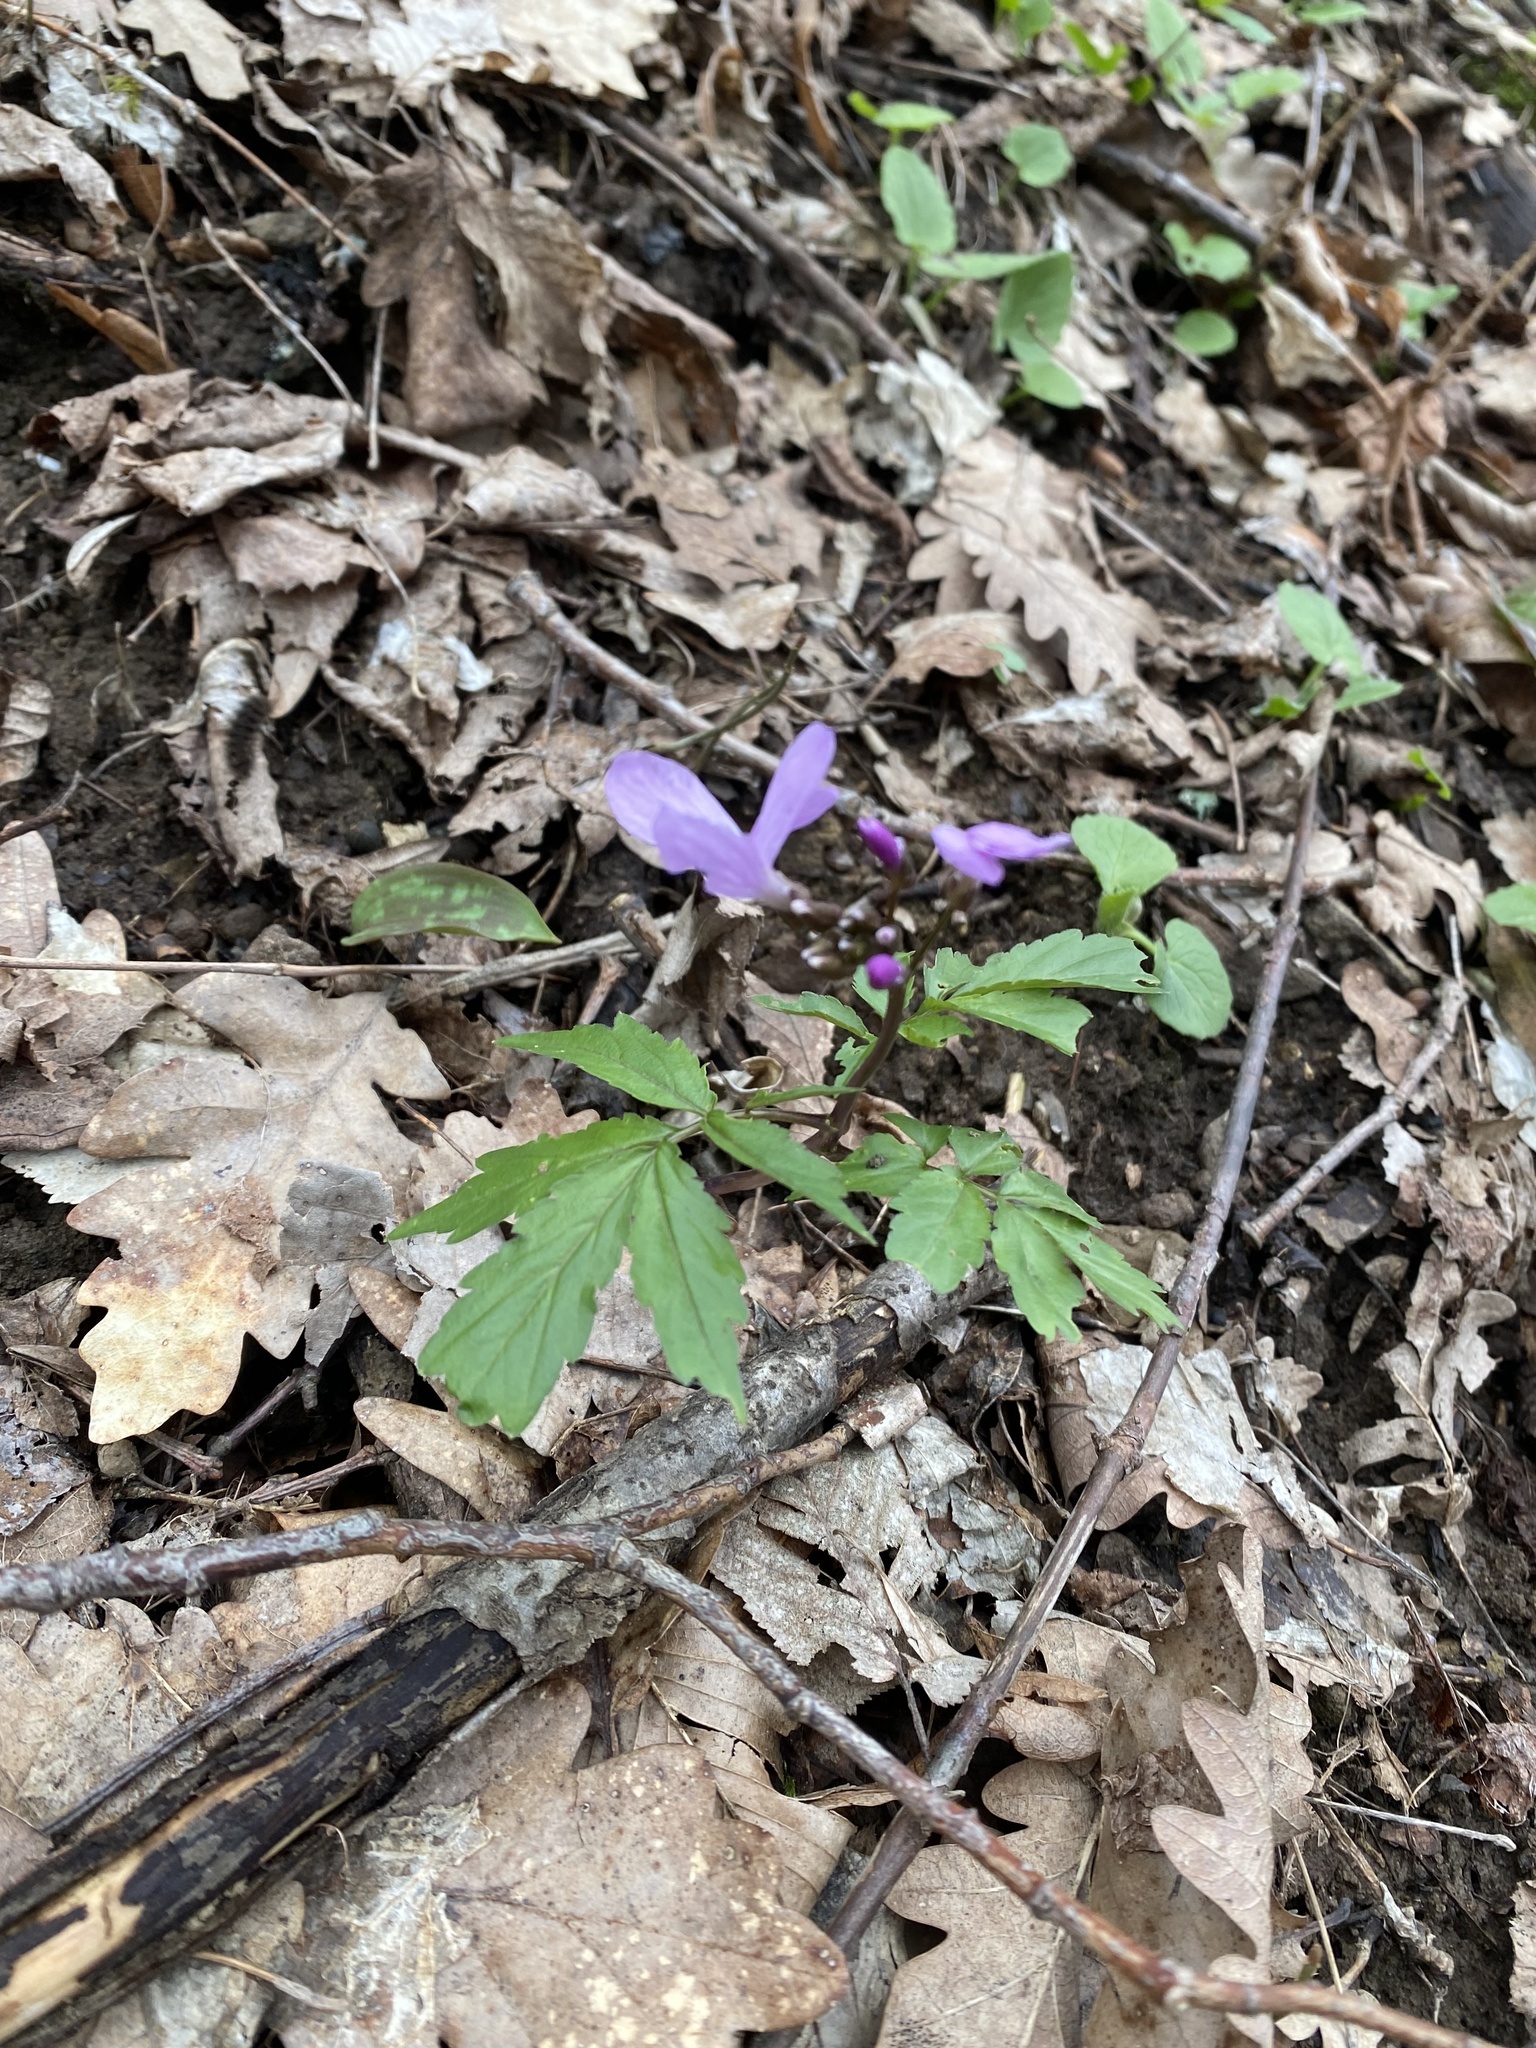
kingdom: Plantae
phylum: Tracheophyta
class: Magnoliopsida
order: Brassicales
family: Brassicaceae
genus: Cardamine
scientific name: Cardamine quinquefolia
